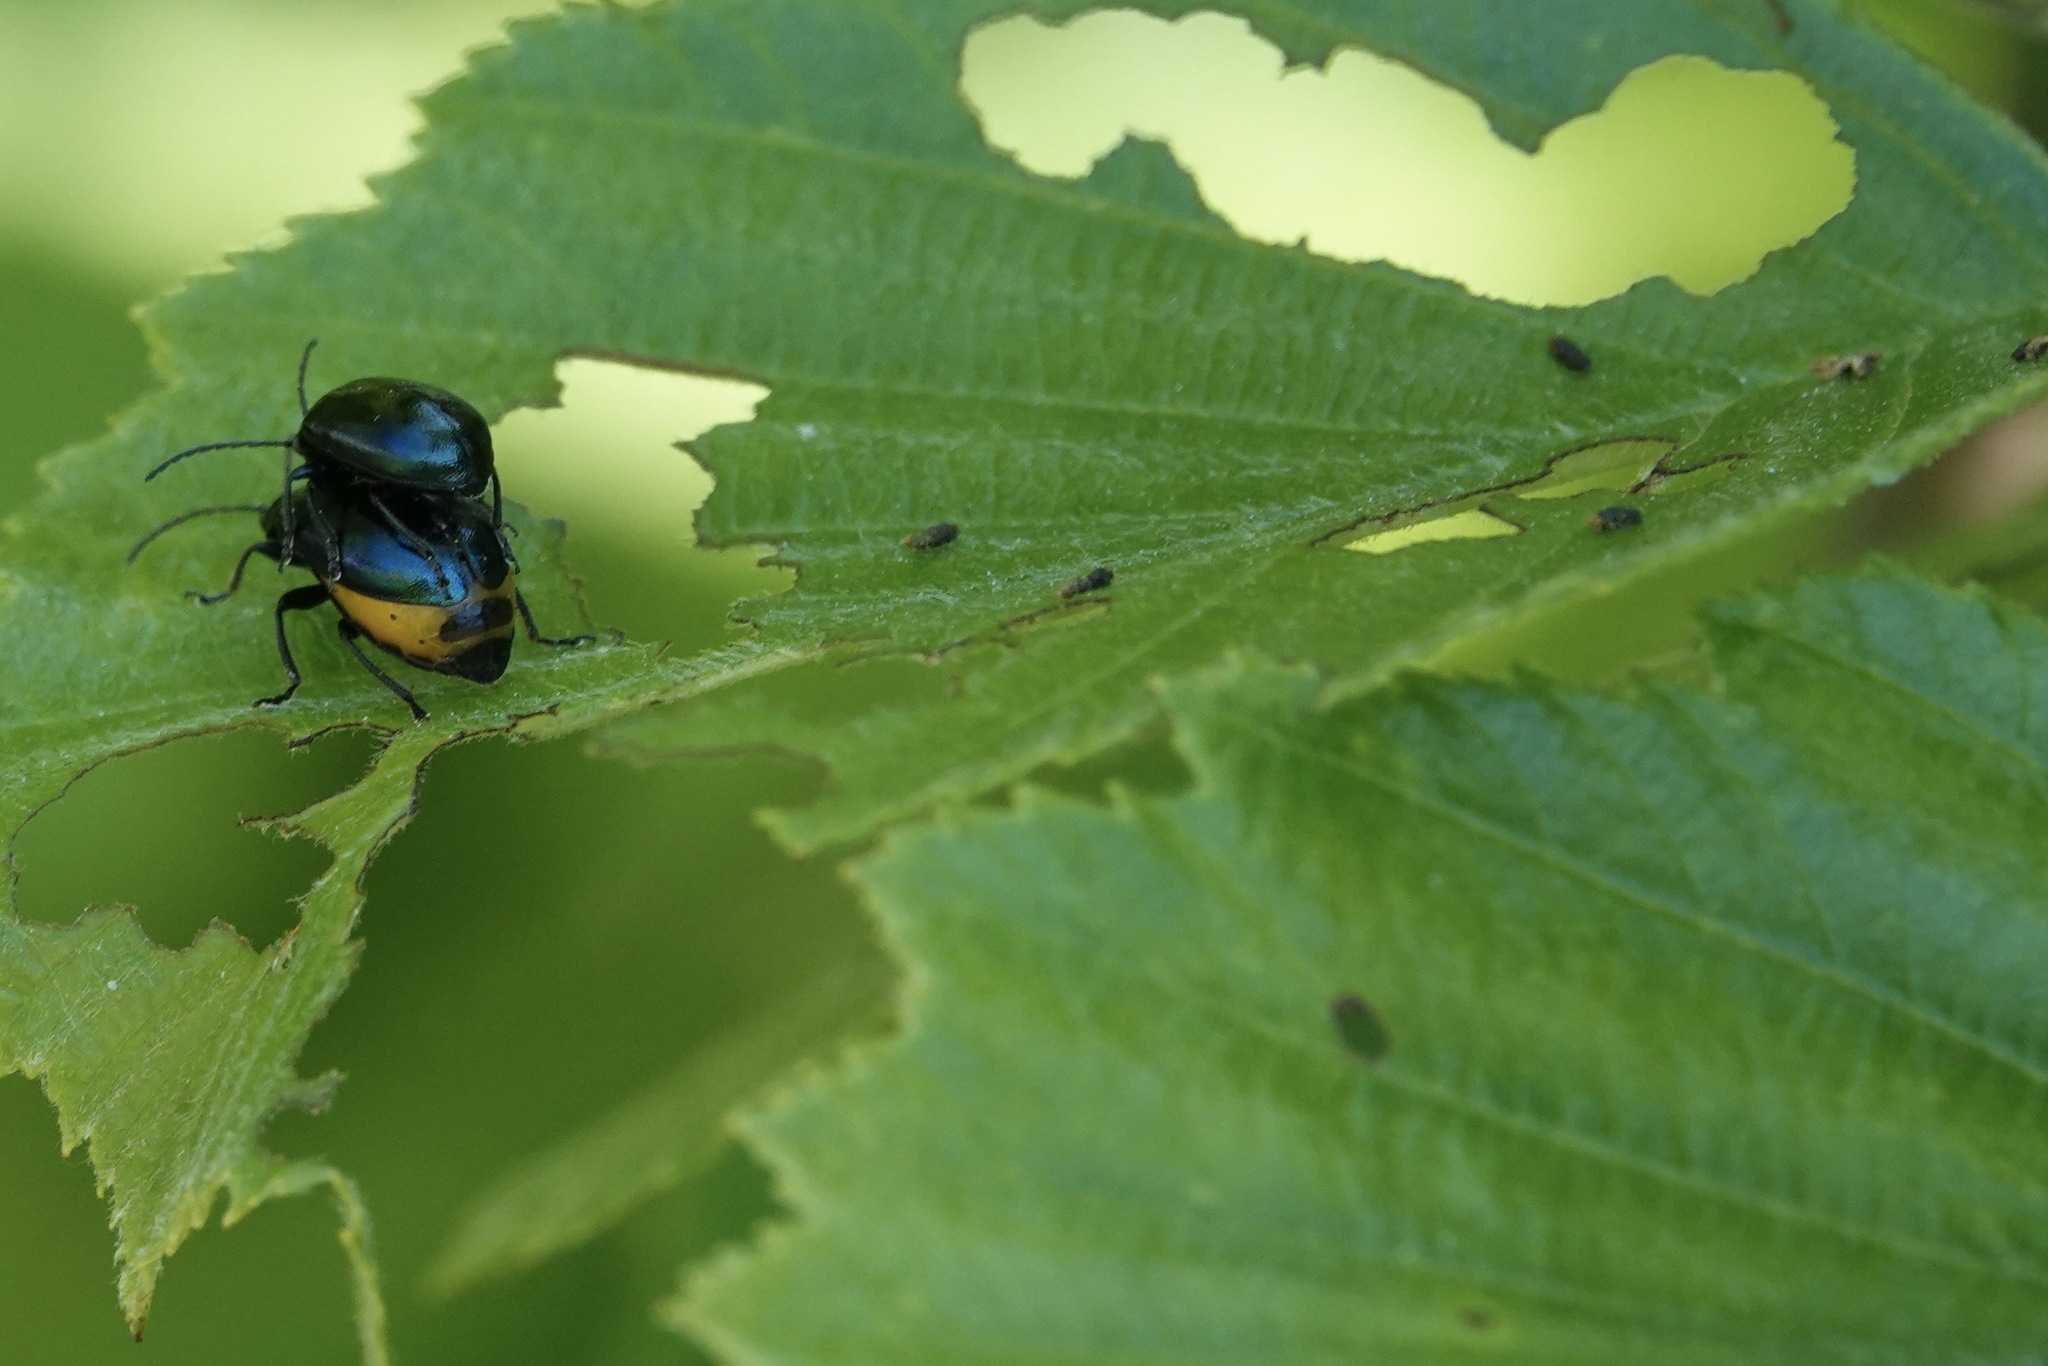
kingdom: Animalia
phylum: Arthropoda
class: Insecta
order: Coleoptera
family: Chrysomelidae
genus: Agelastica
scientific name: Agelastica alni
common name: Alder leaf beetle
